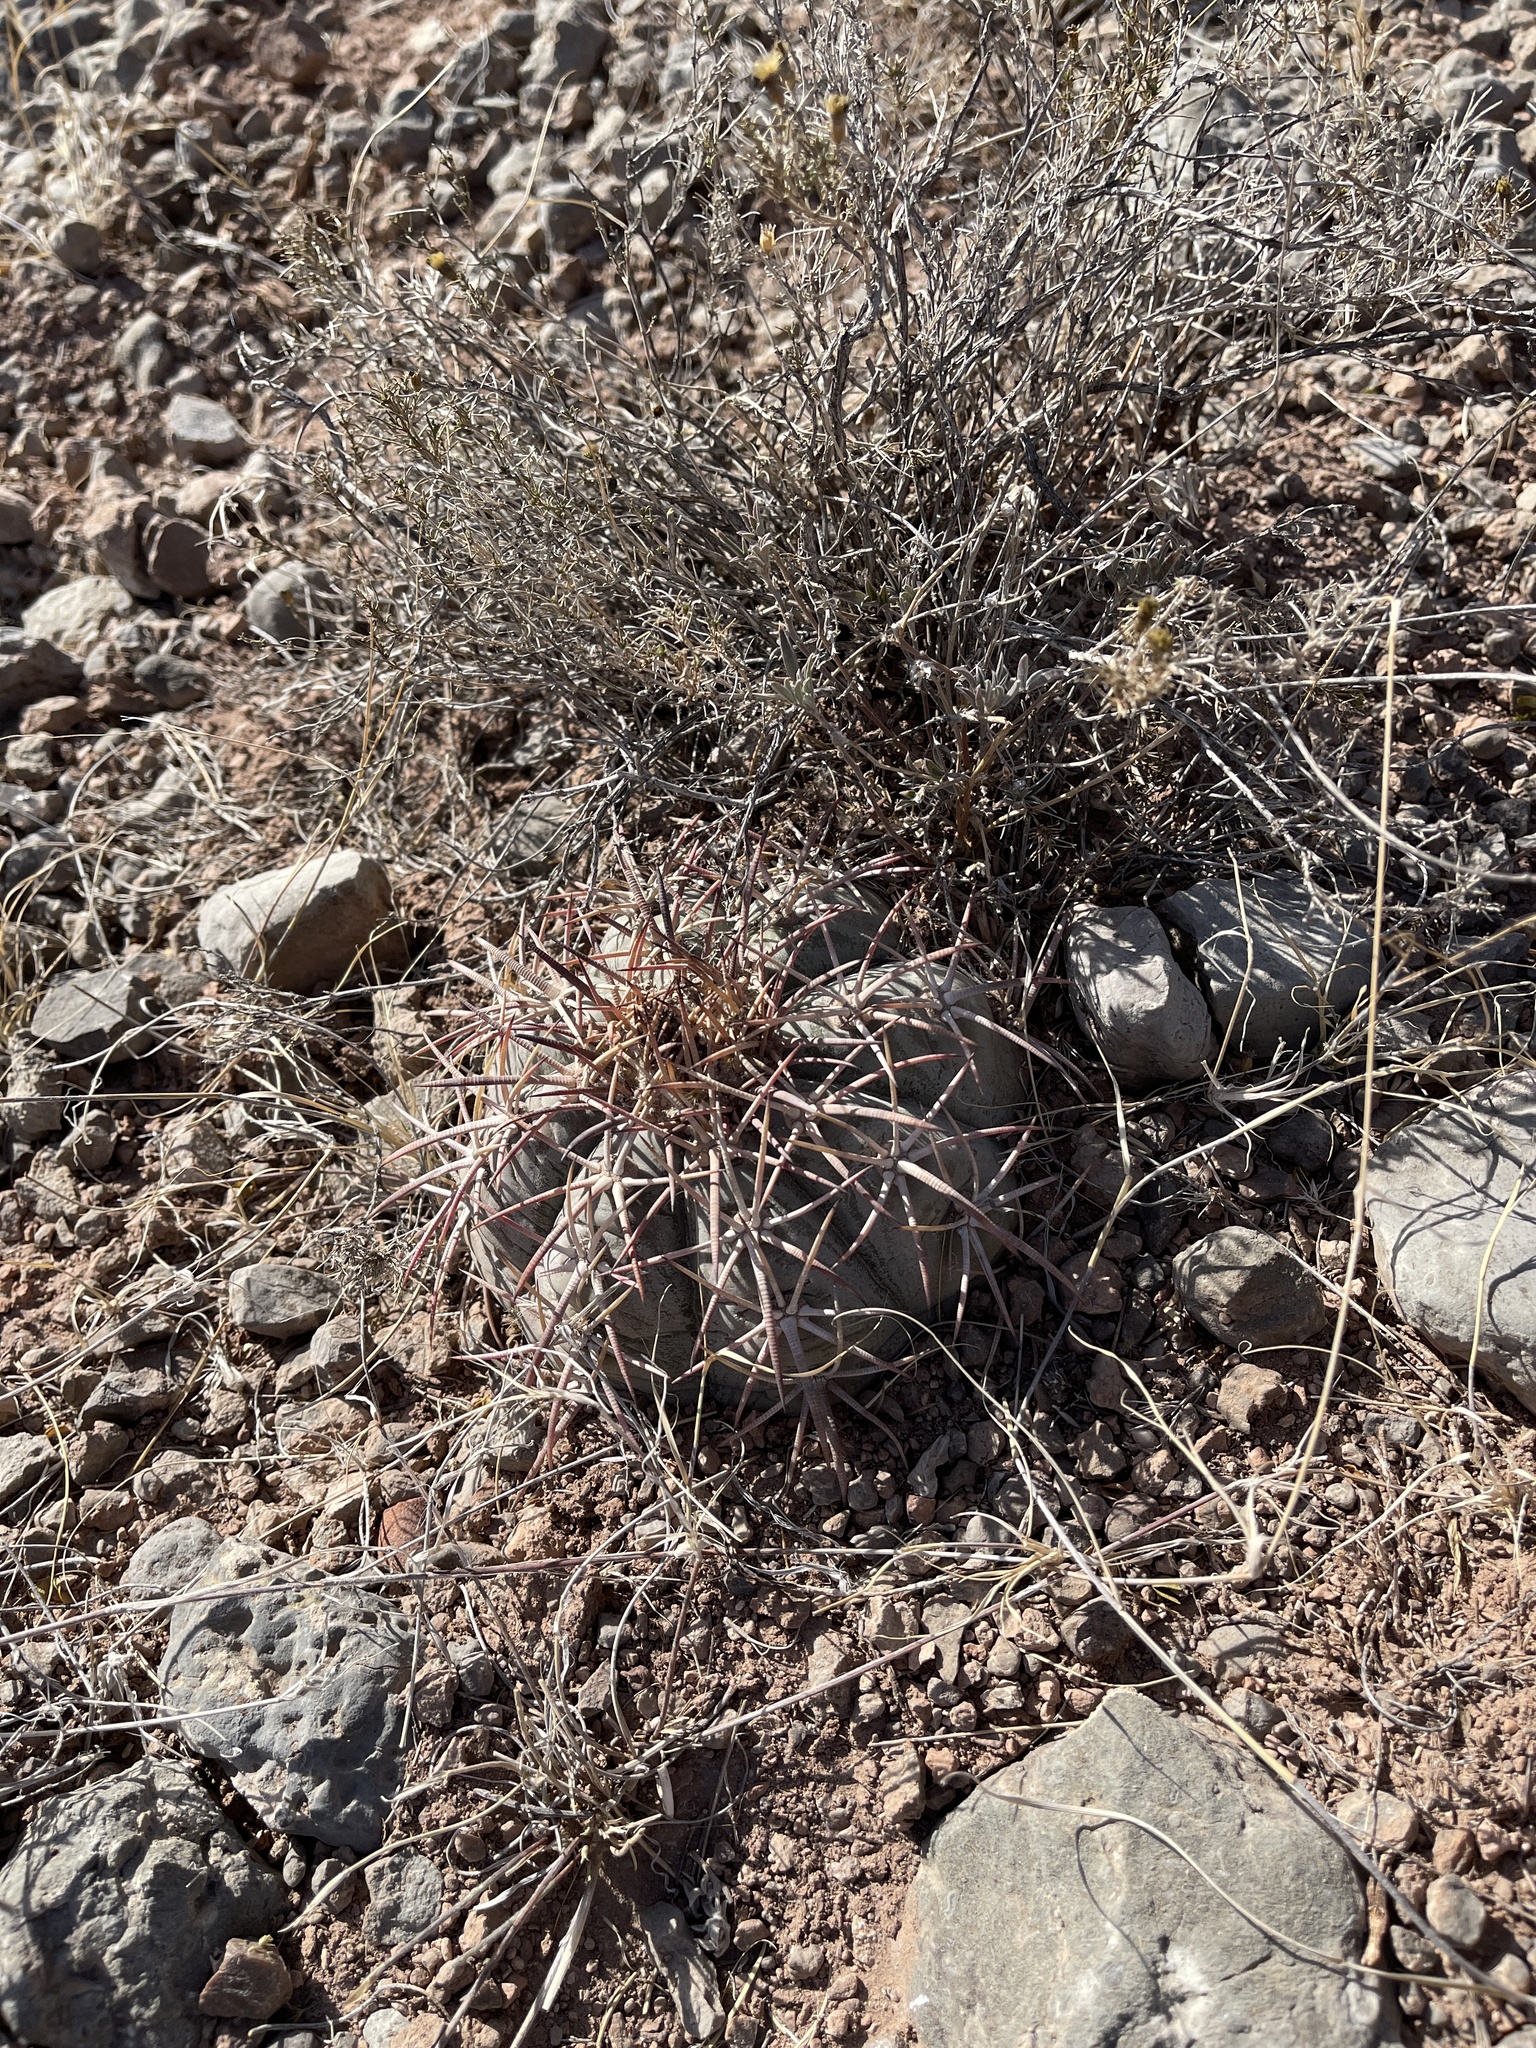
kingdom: Plantae
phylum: Tracheophyta
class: Magnoliopsida
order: Caryophyllales
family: Cactaceae
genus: Echinocactus
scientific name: Echinocactus horizonthalonius
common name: Devilshead
